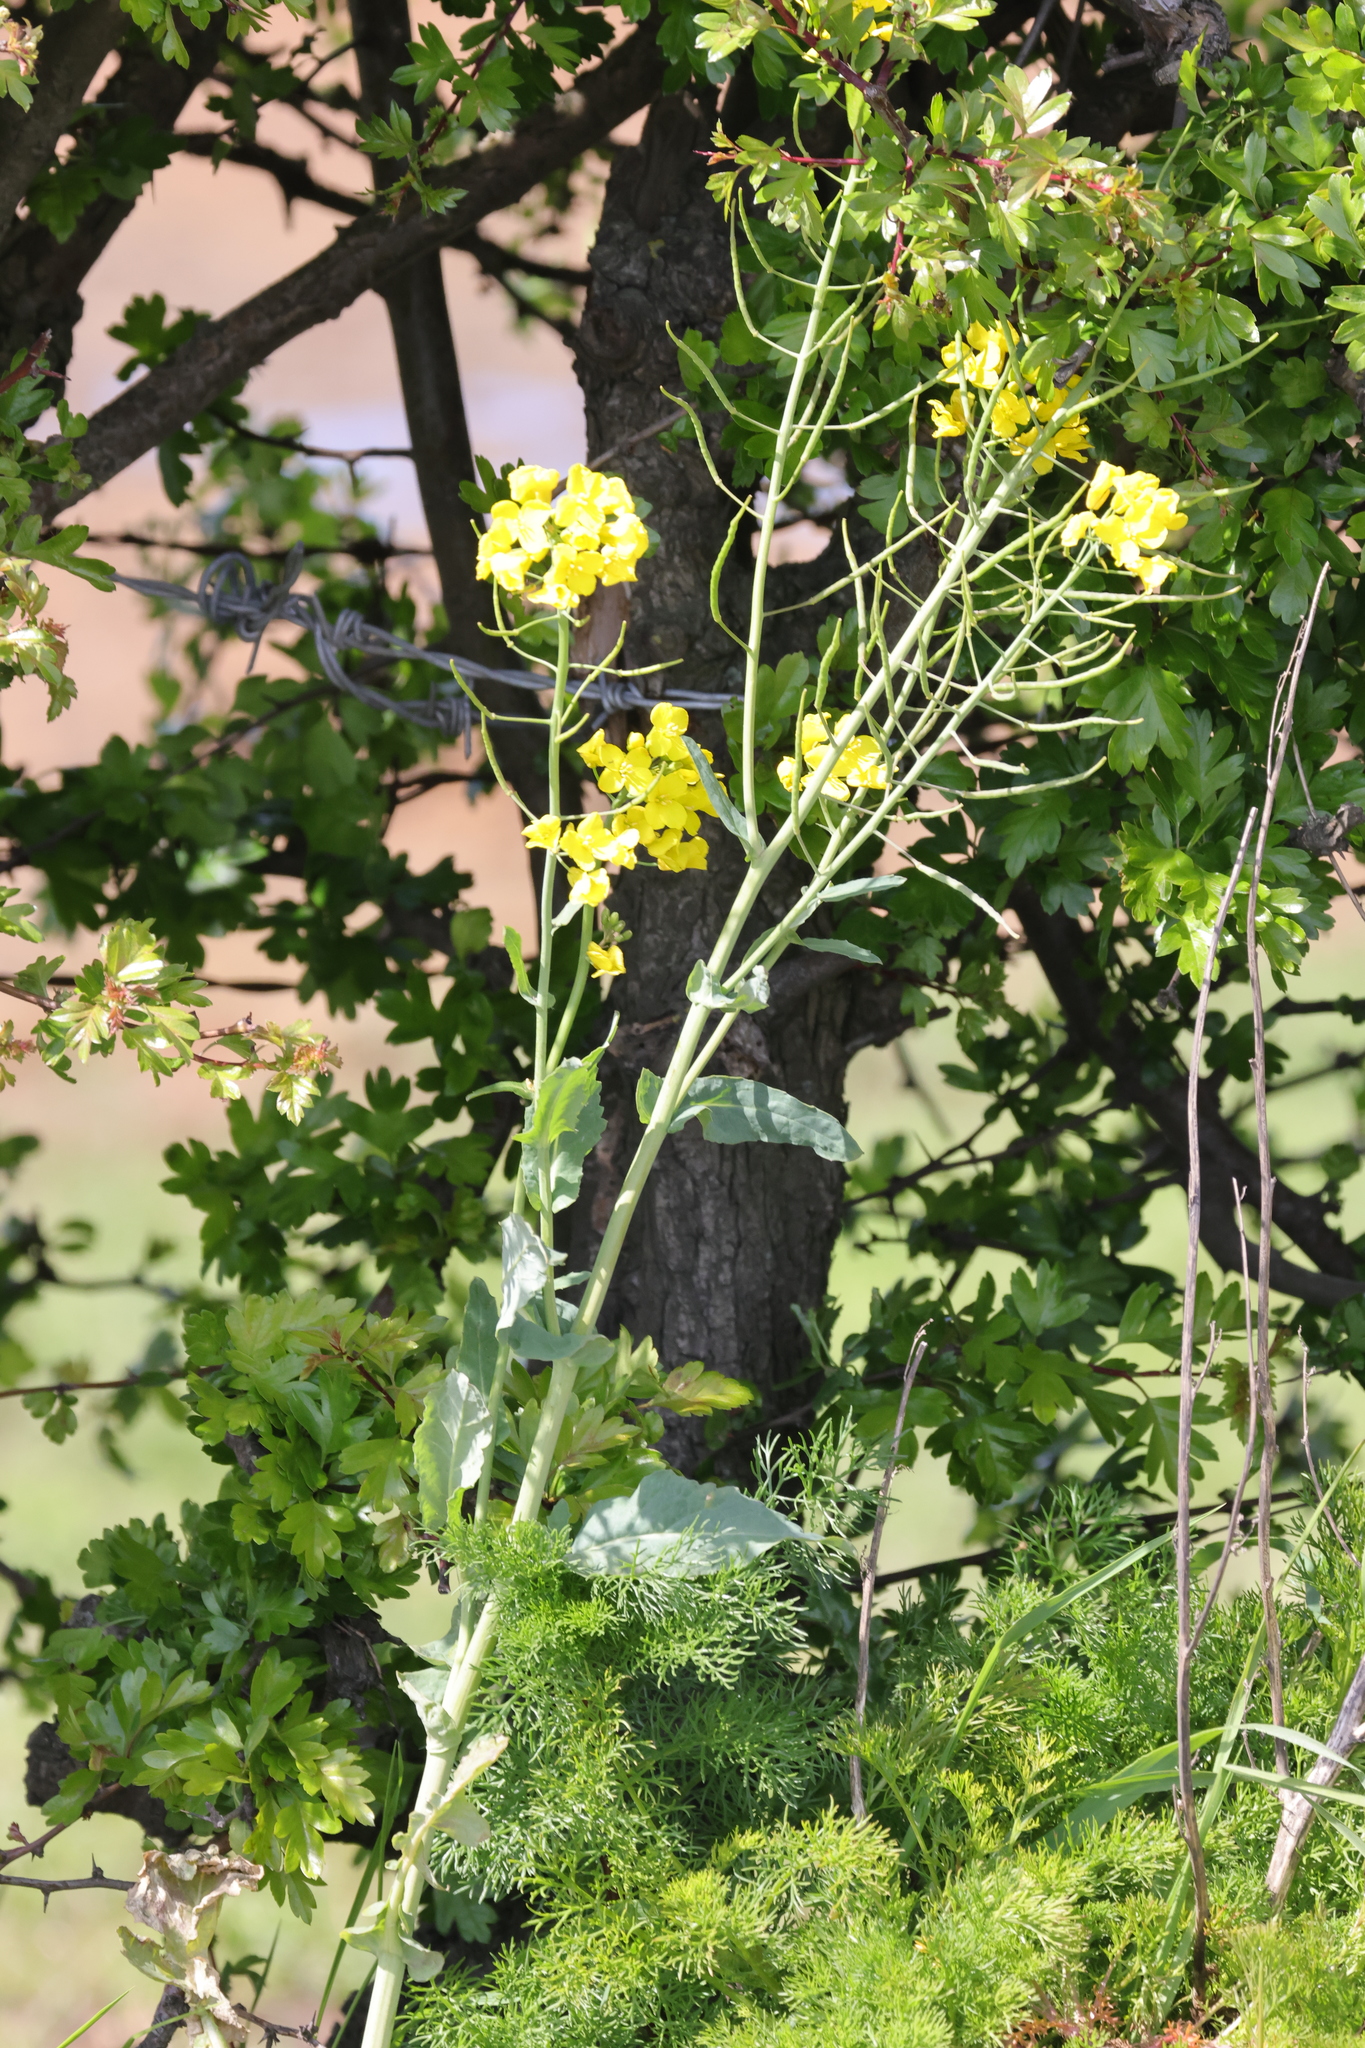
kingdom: Plantae
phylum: Tracheophyta
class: Magnoliopsida
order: Brassicales
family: Brassicaceae
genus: Brassica
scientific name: Brassica napus
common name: Rape
